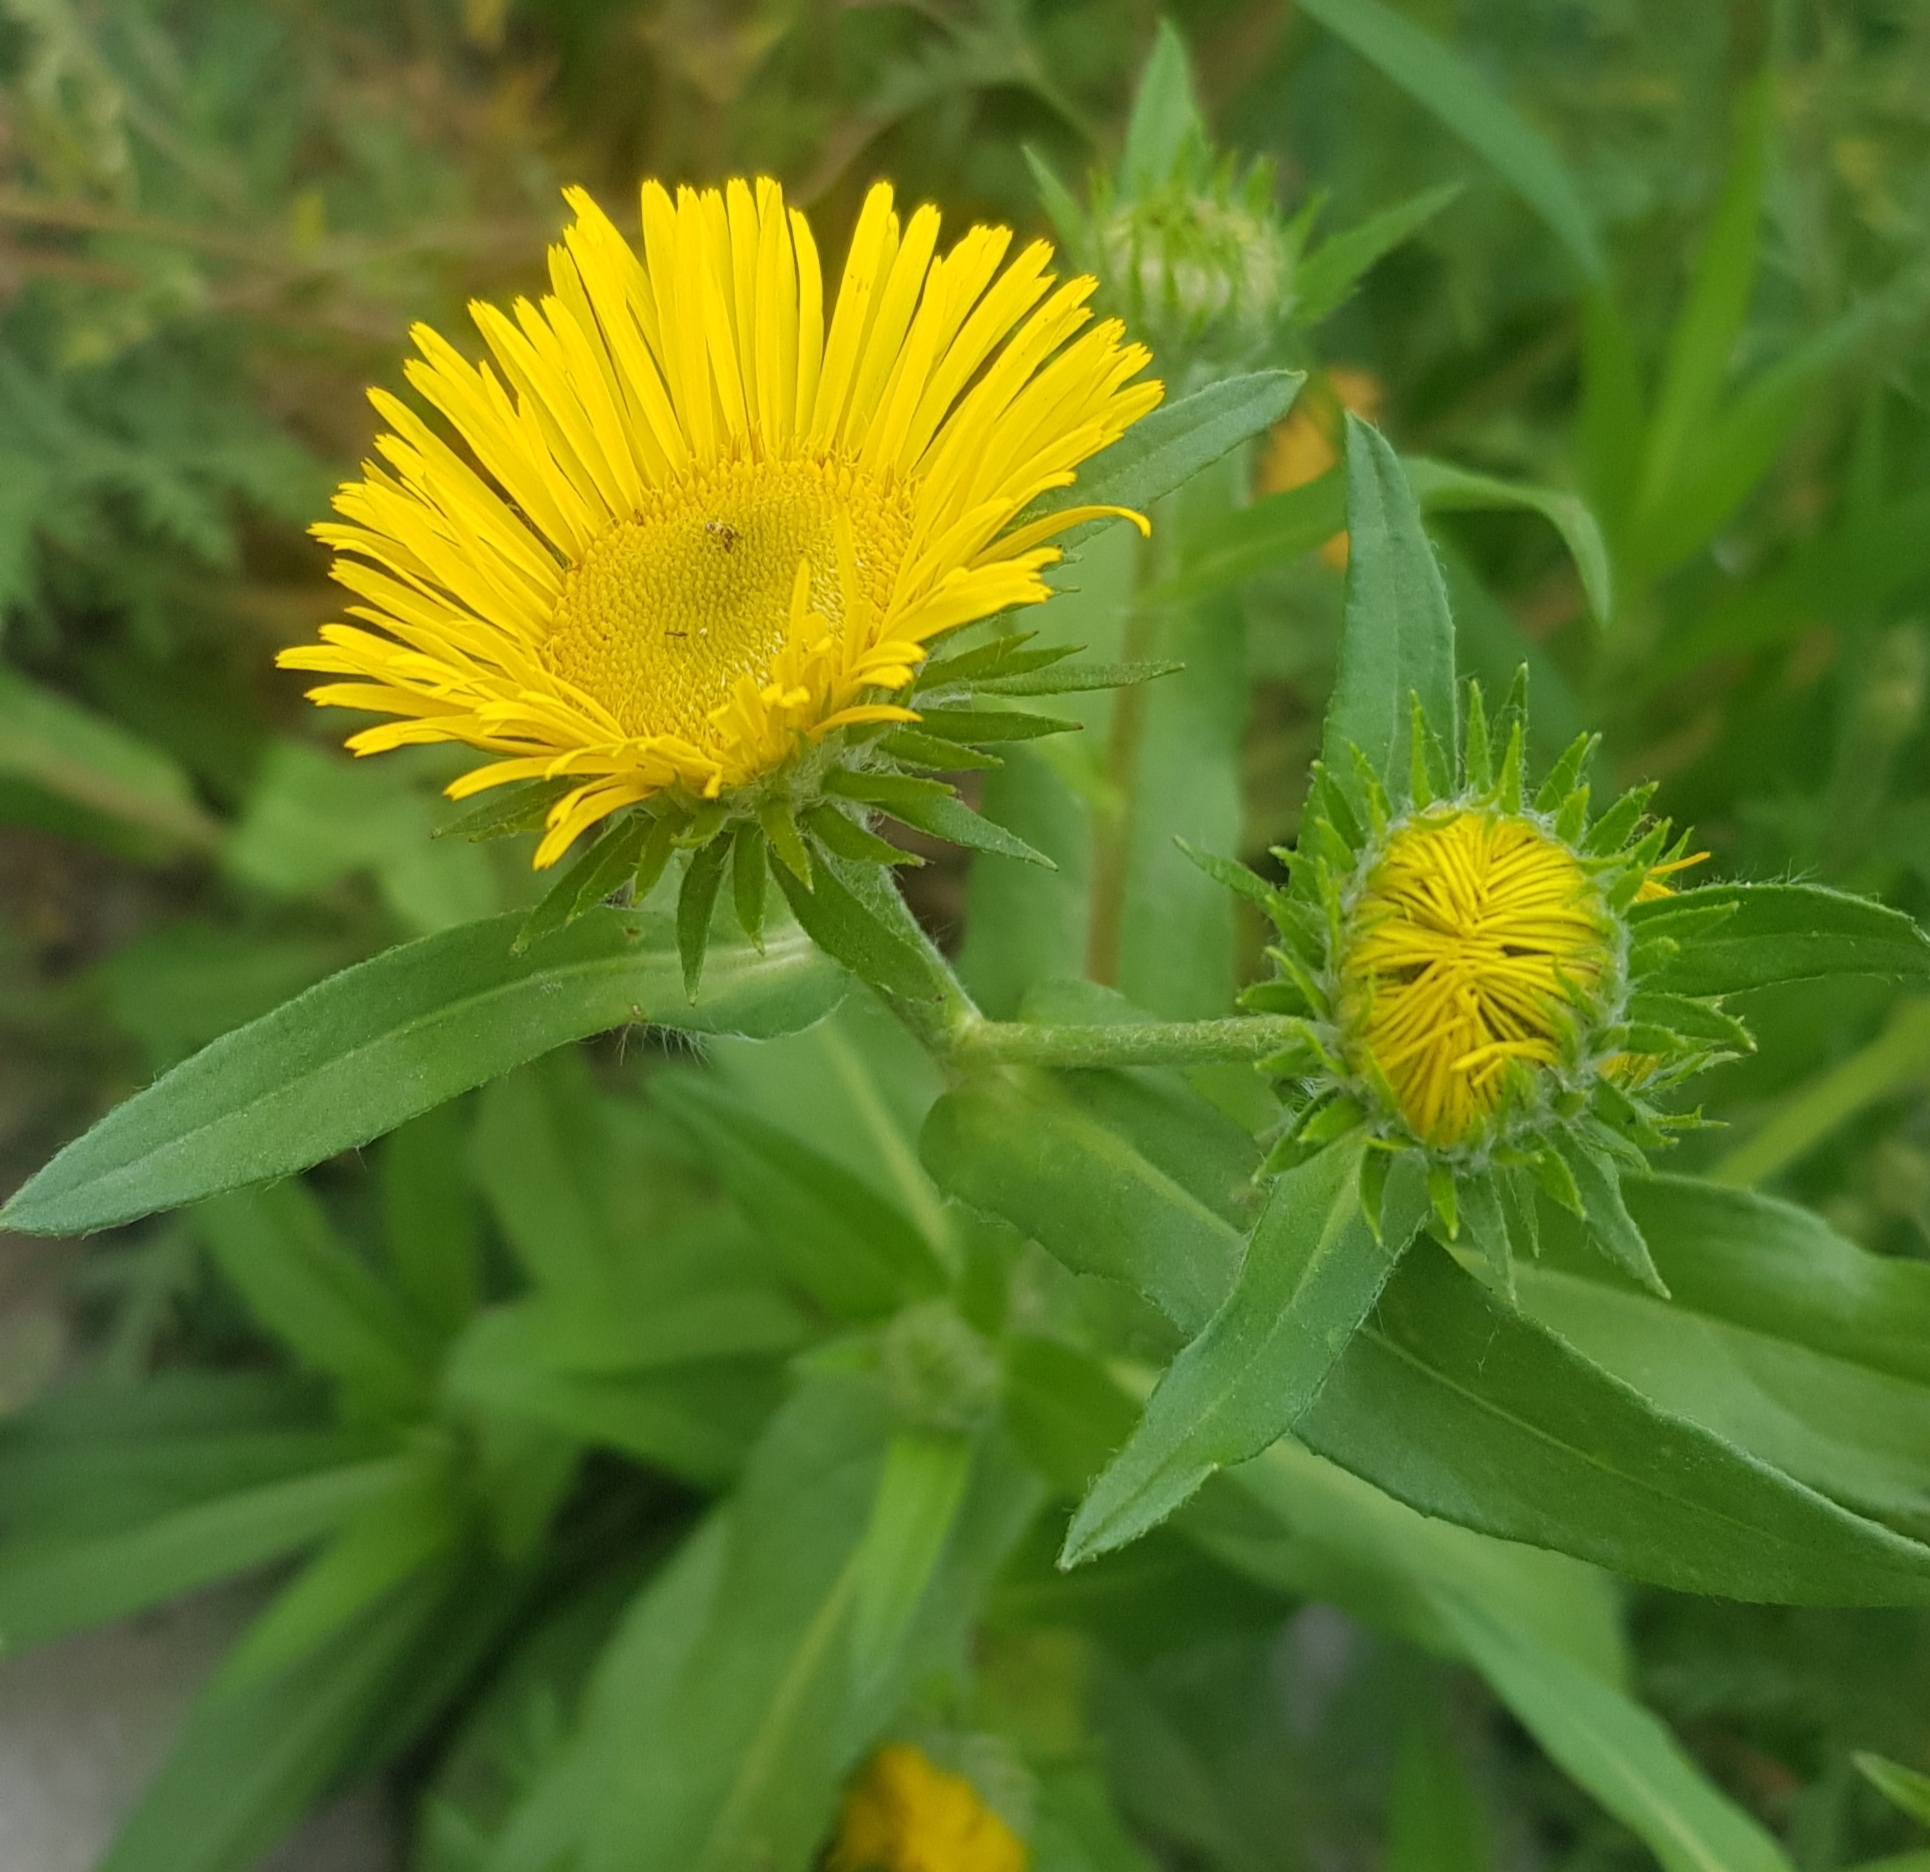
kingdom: Plantae
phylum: Tracheophyta
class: Magnoliopsida
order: Asterales
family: Asteraceae
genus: Pentanema
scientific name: Pentanema britannicum
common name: British elecampane
